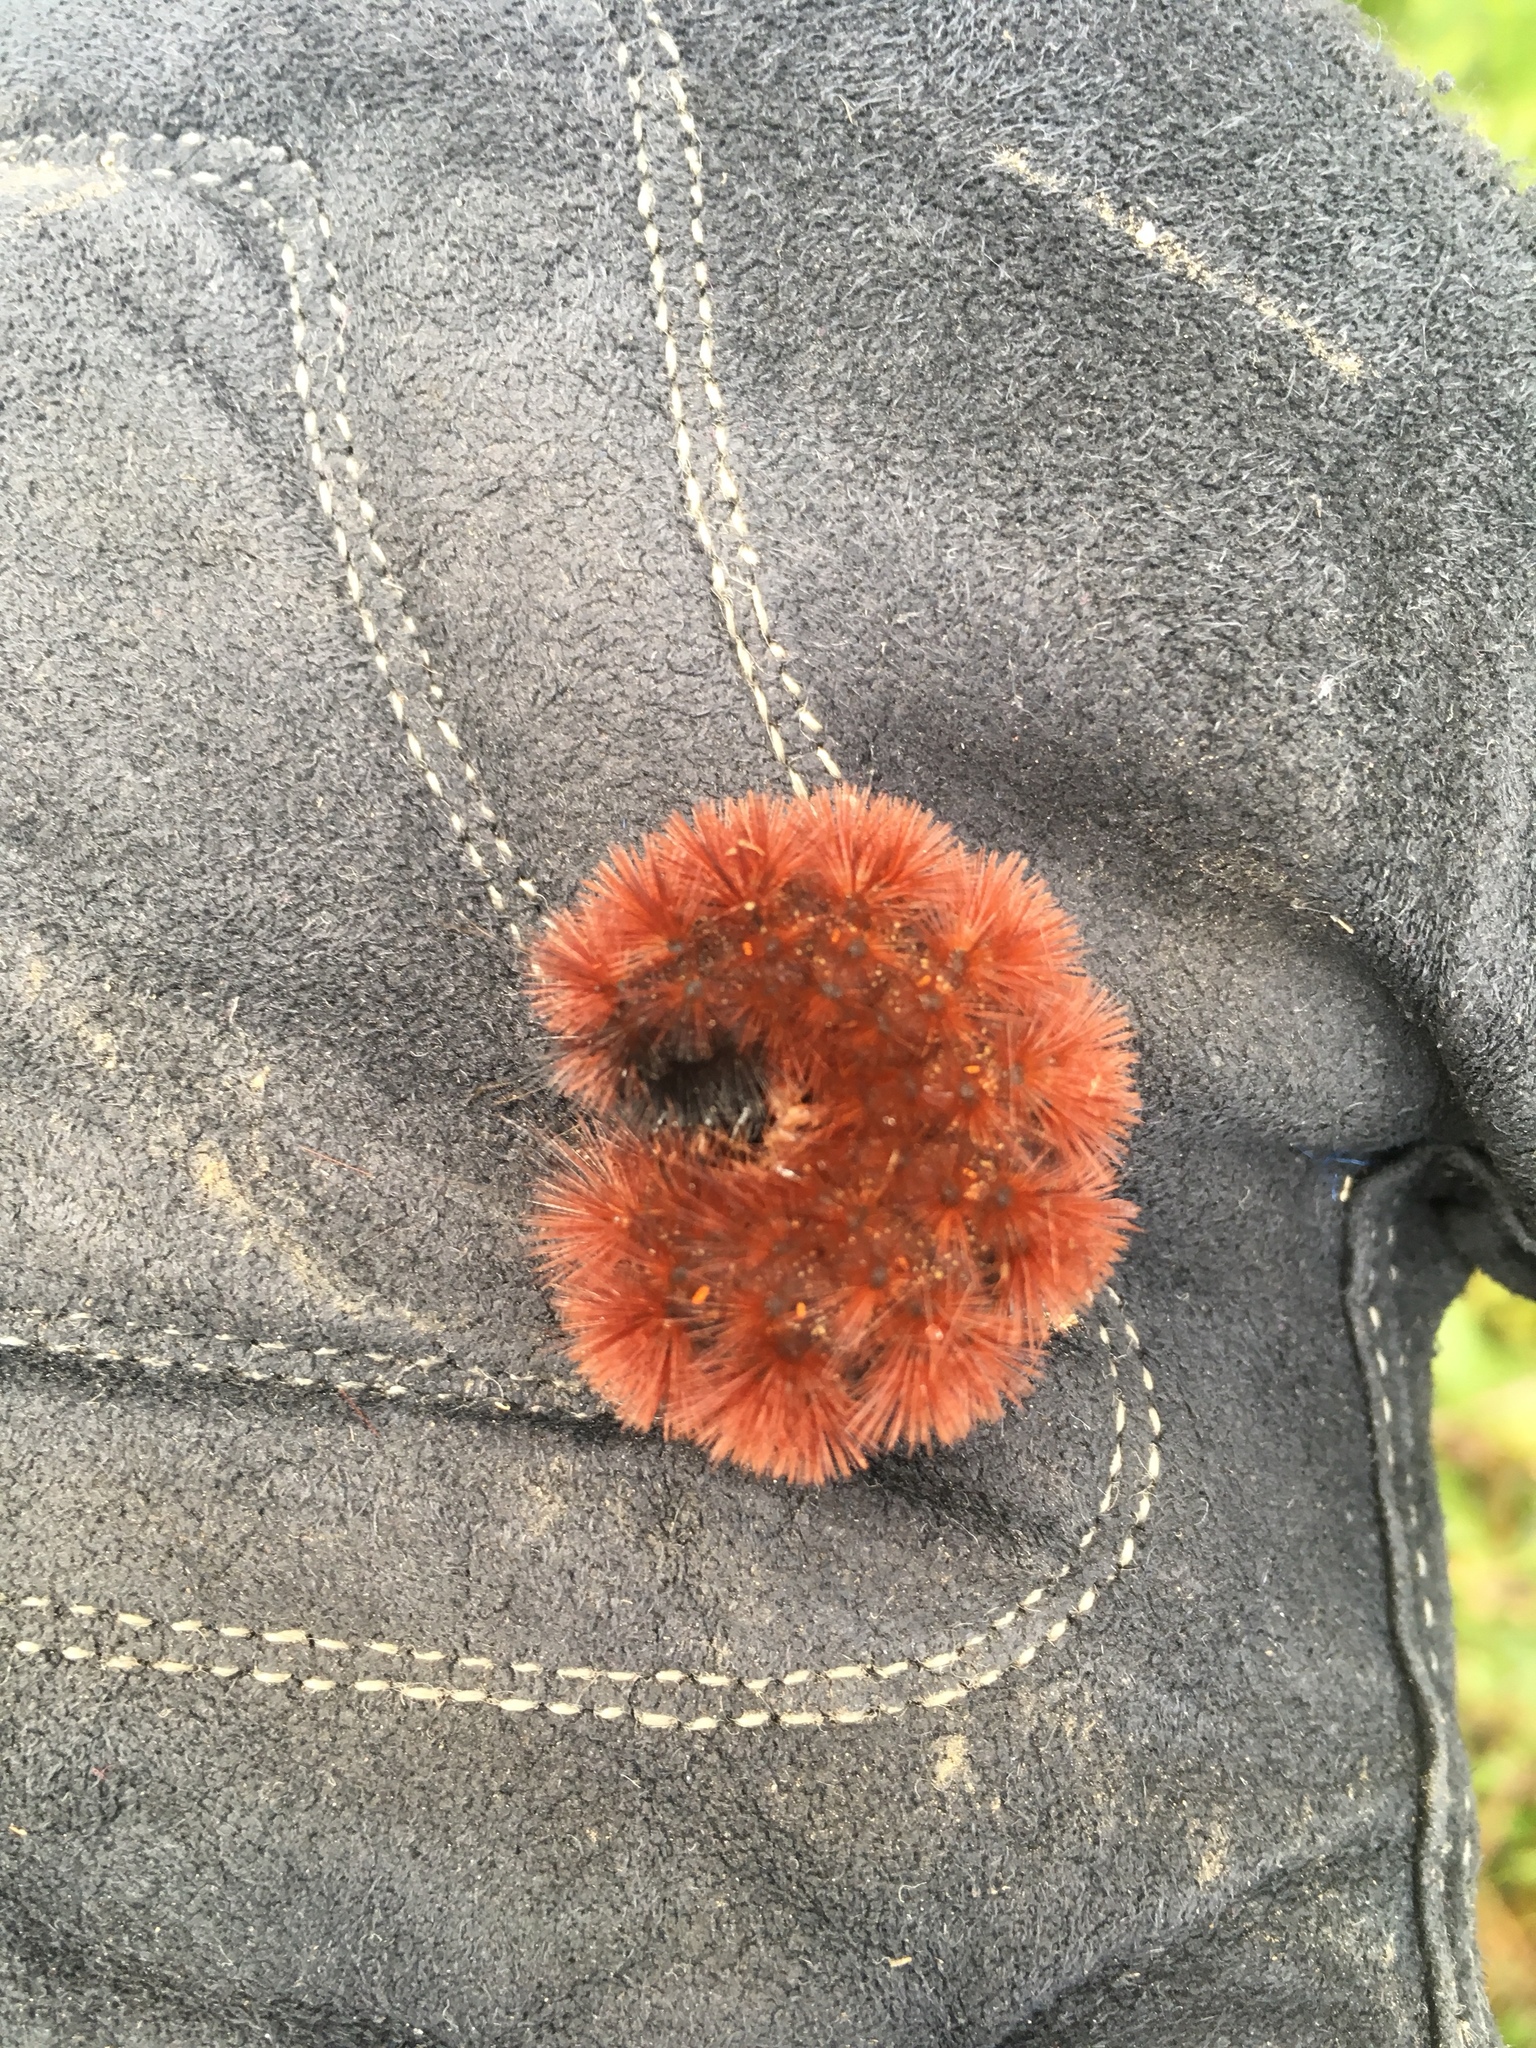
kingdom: Animalia
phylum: Arthropoda
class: Insecta
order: Lepidoptera
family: Erebidae
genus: Pyrrharctia
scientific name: Pyrrharctia isabella
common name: Isabella tiger moth
